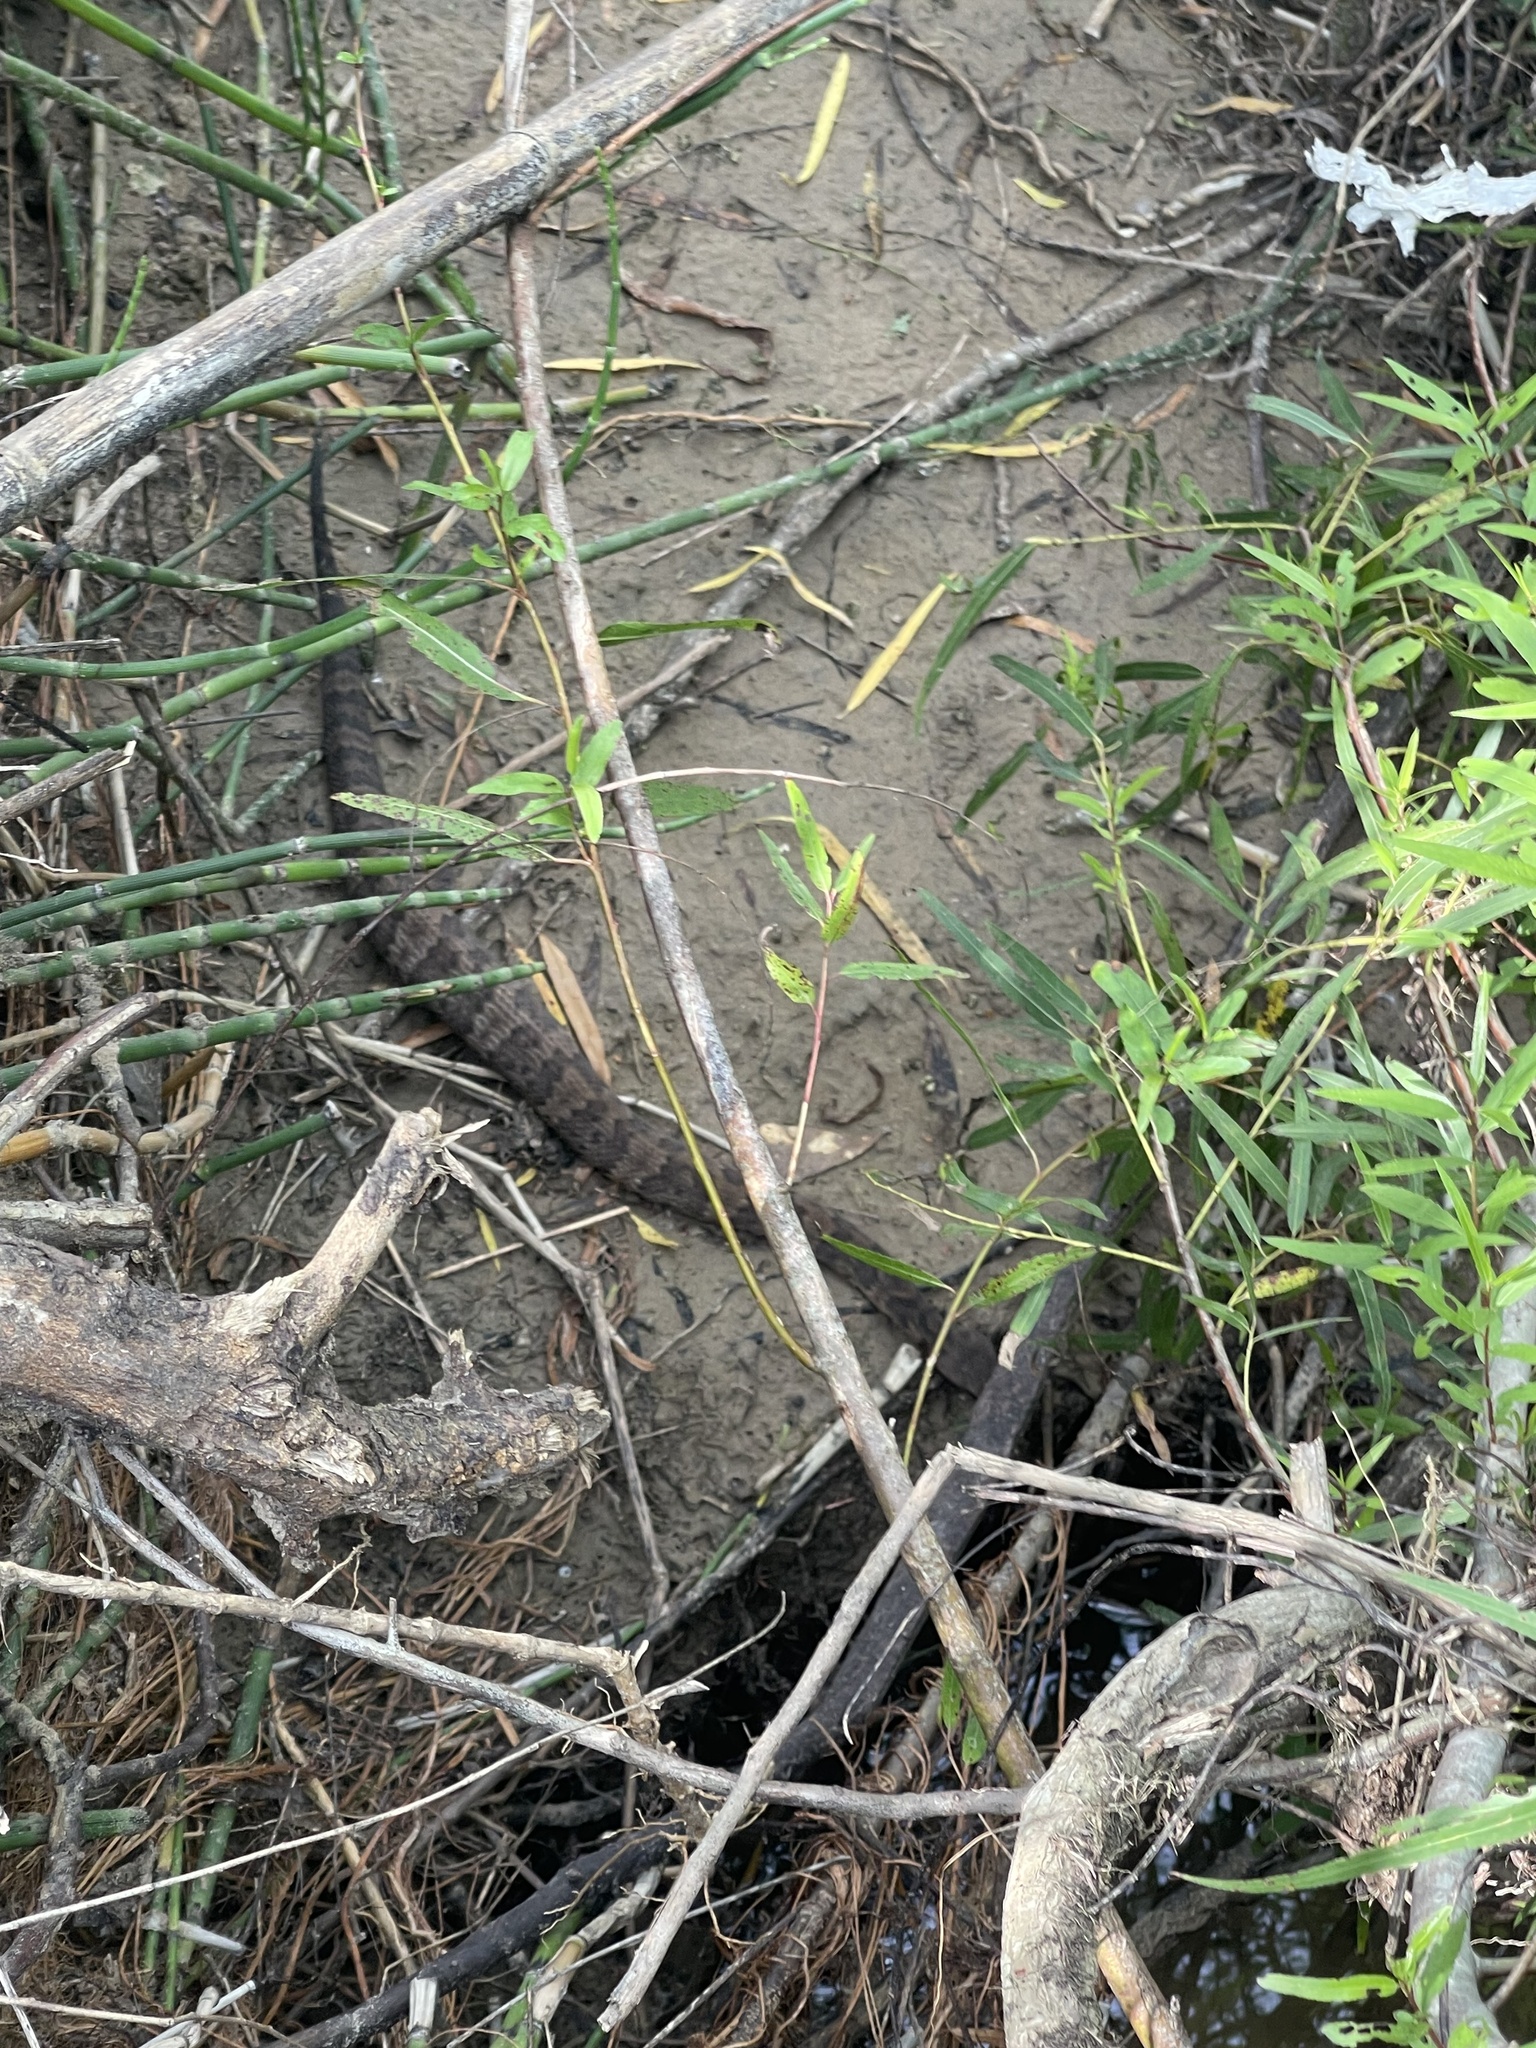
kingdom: Animalia
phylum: Chordata
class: Squamata
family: Viperidae
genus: Agkistrodon
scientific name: Agkistrodon piscivorus
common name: Cottonmouth
